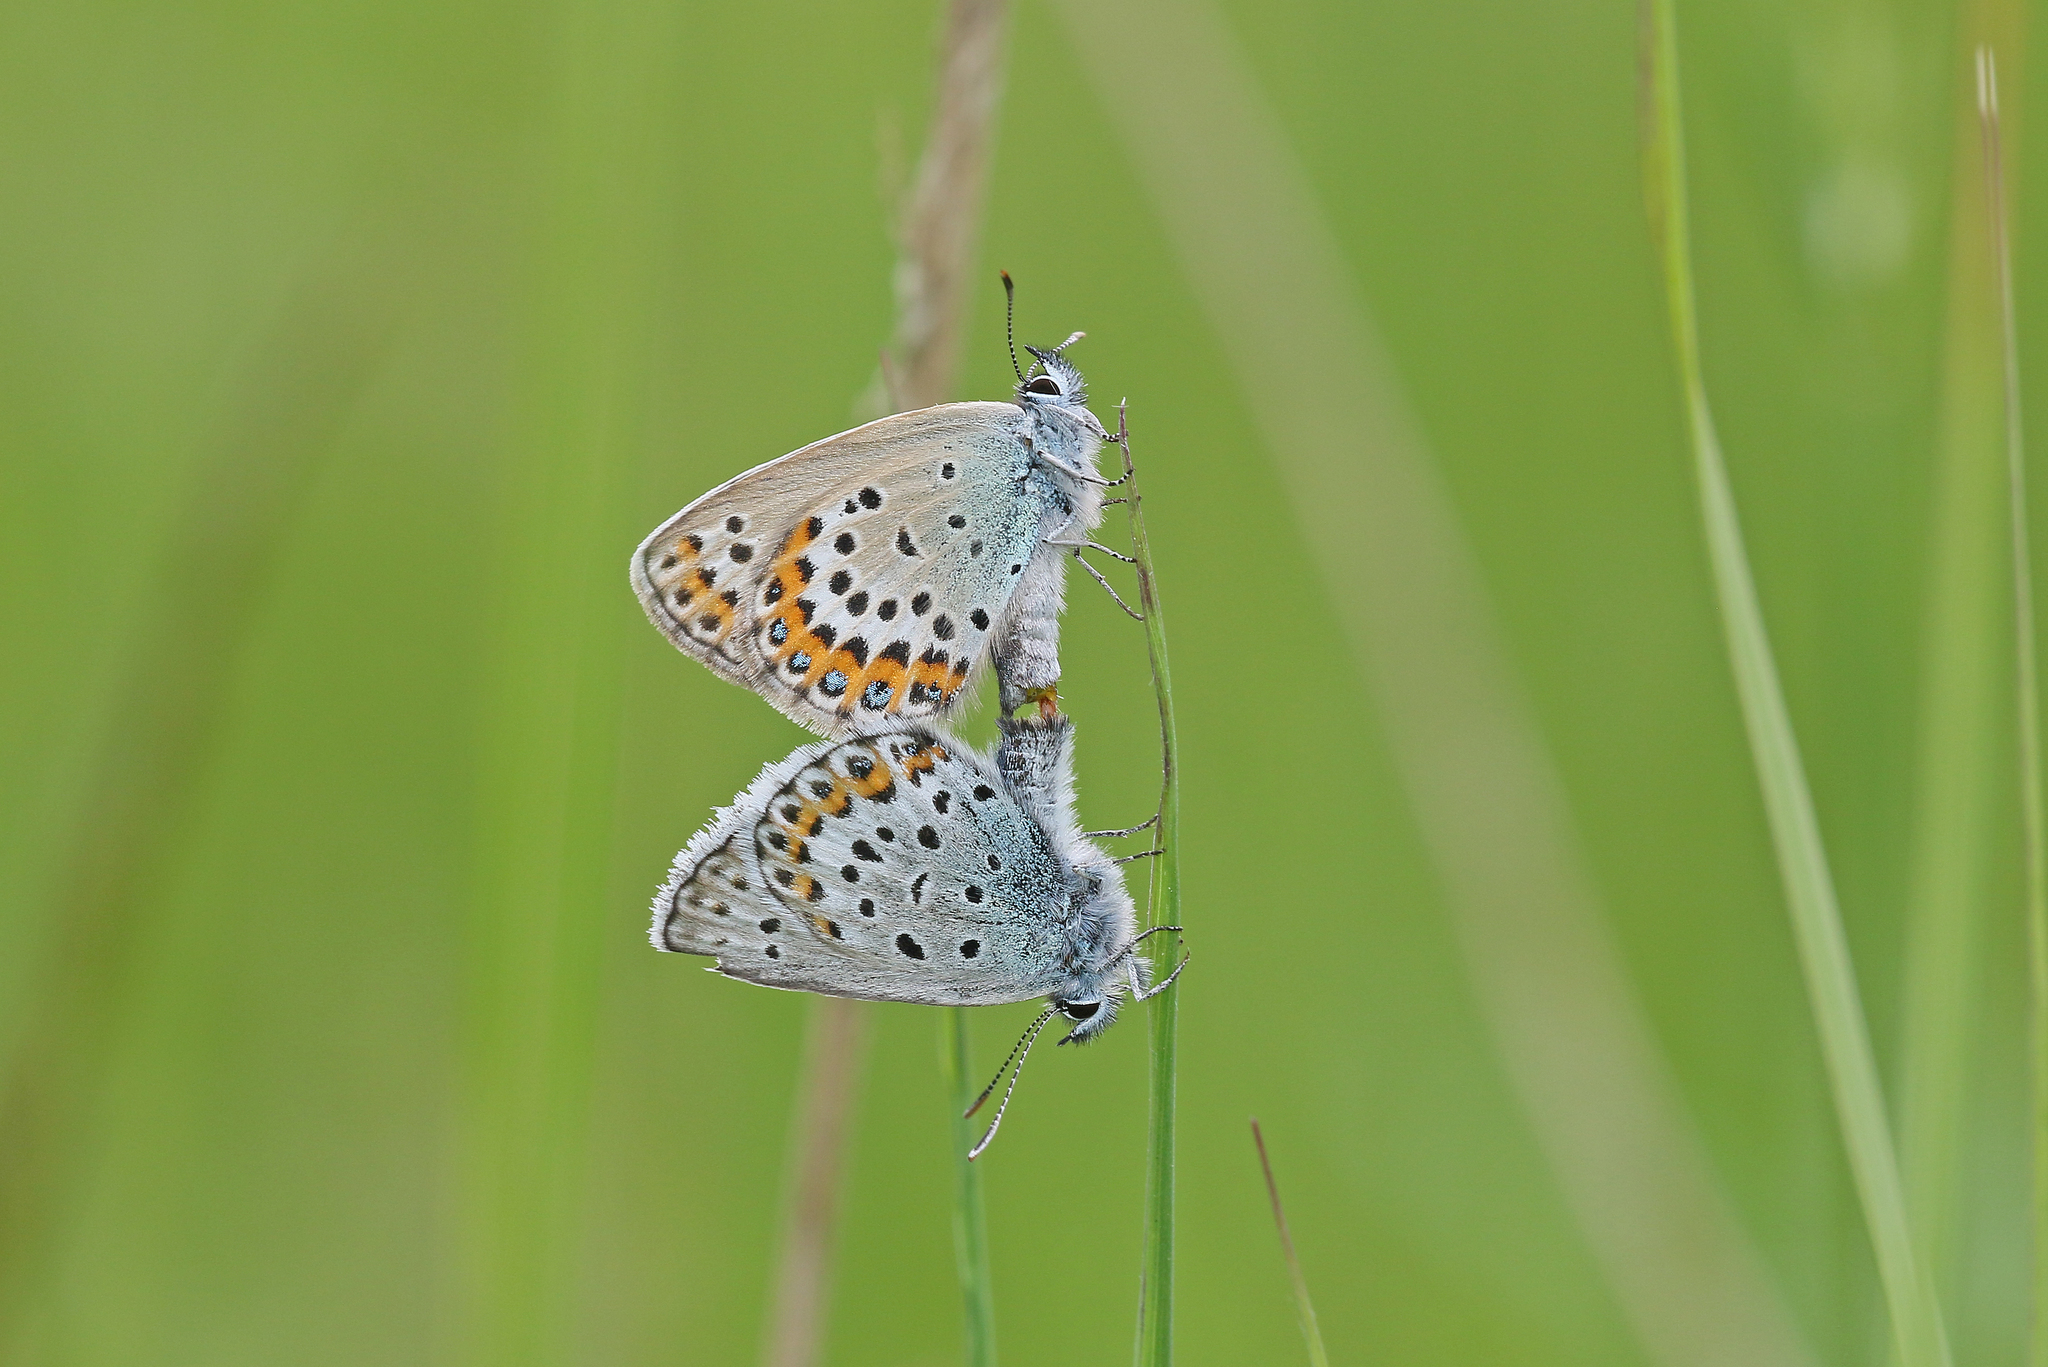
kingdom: Animalia
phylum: Arthropoda
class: Insecta
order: Lepidoptera
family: Lycaenidae
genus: Lycaeides
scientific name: Lycaeides idas
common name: Northern blue
